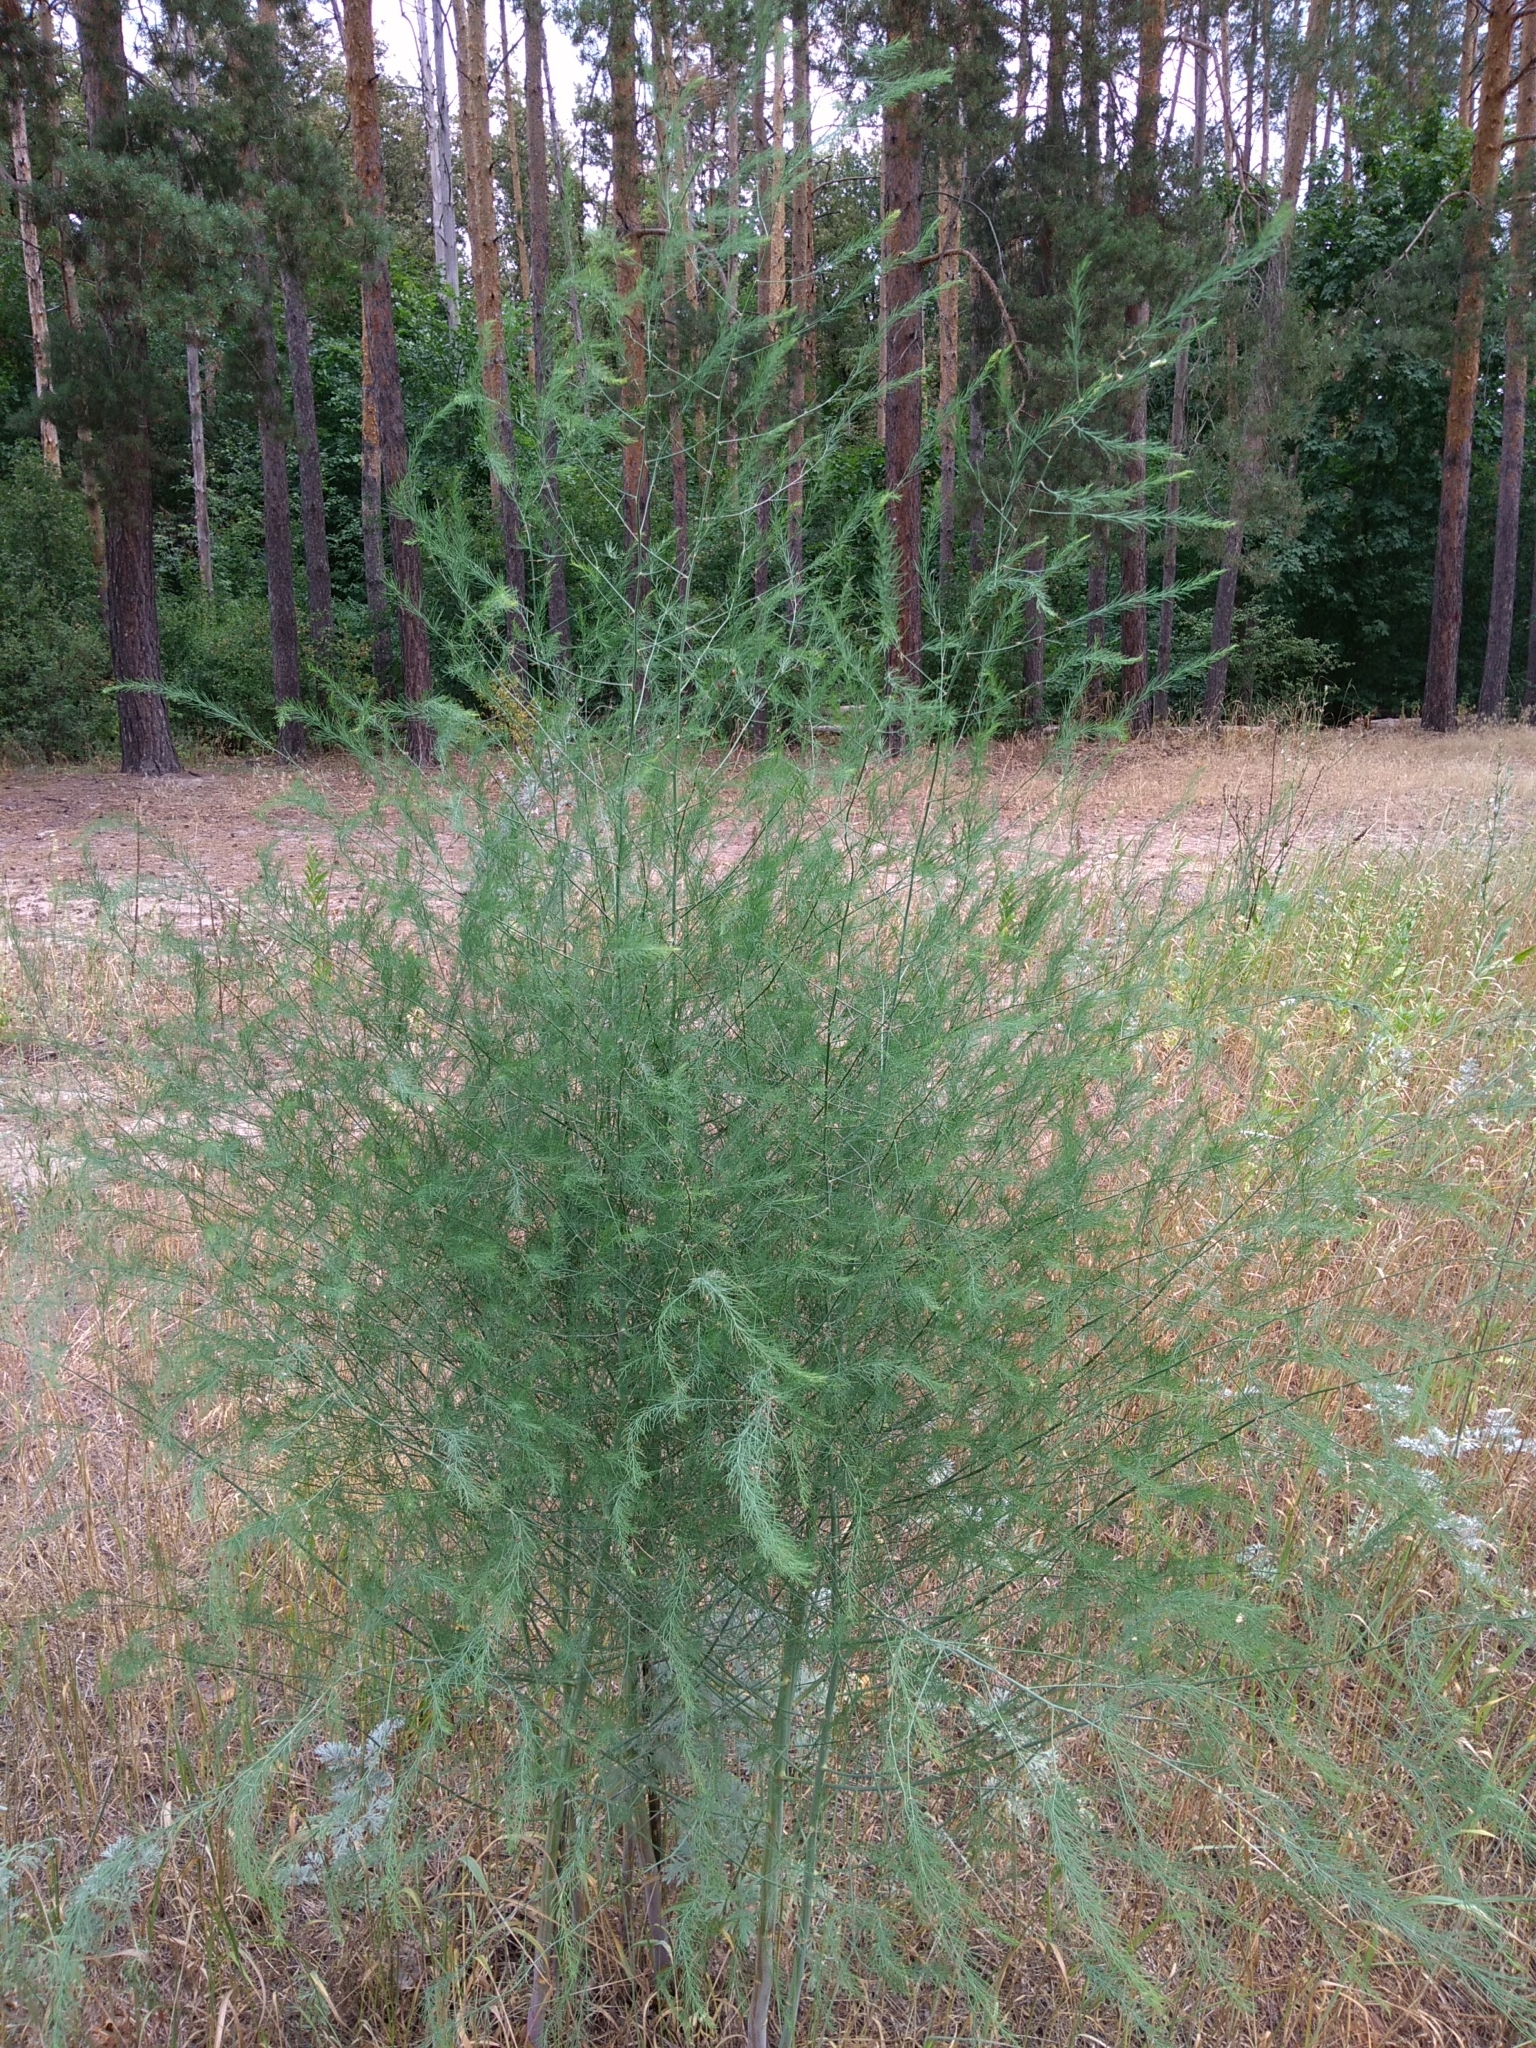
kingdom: Plantae
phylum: Tracheophyta
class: Liliopsida
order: Asparagales
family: Asparagaceae
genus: Asparagus
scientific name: Asparagus officinalis
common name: Garden asparagus
